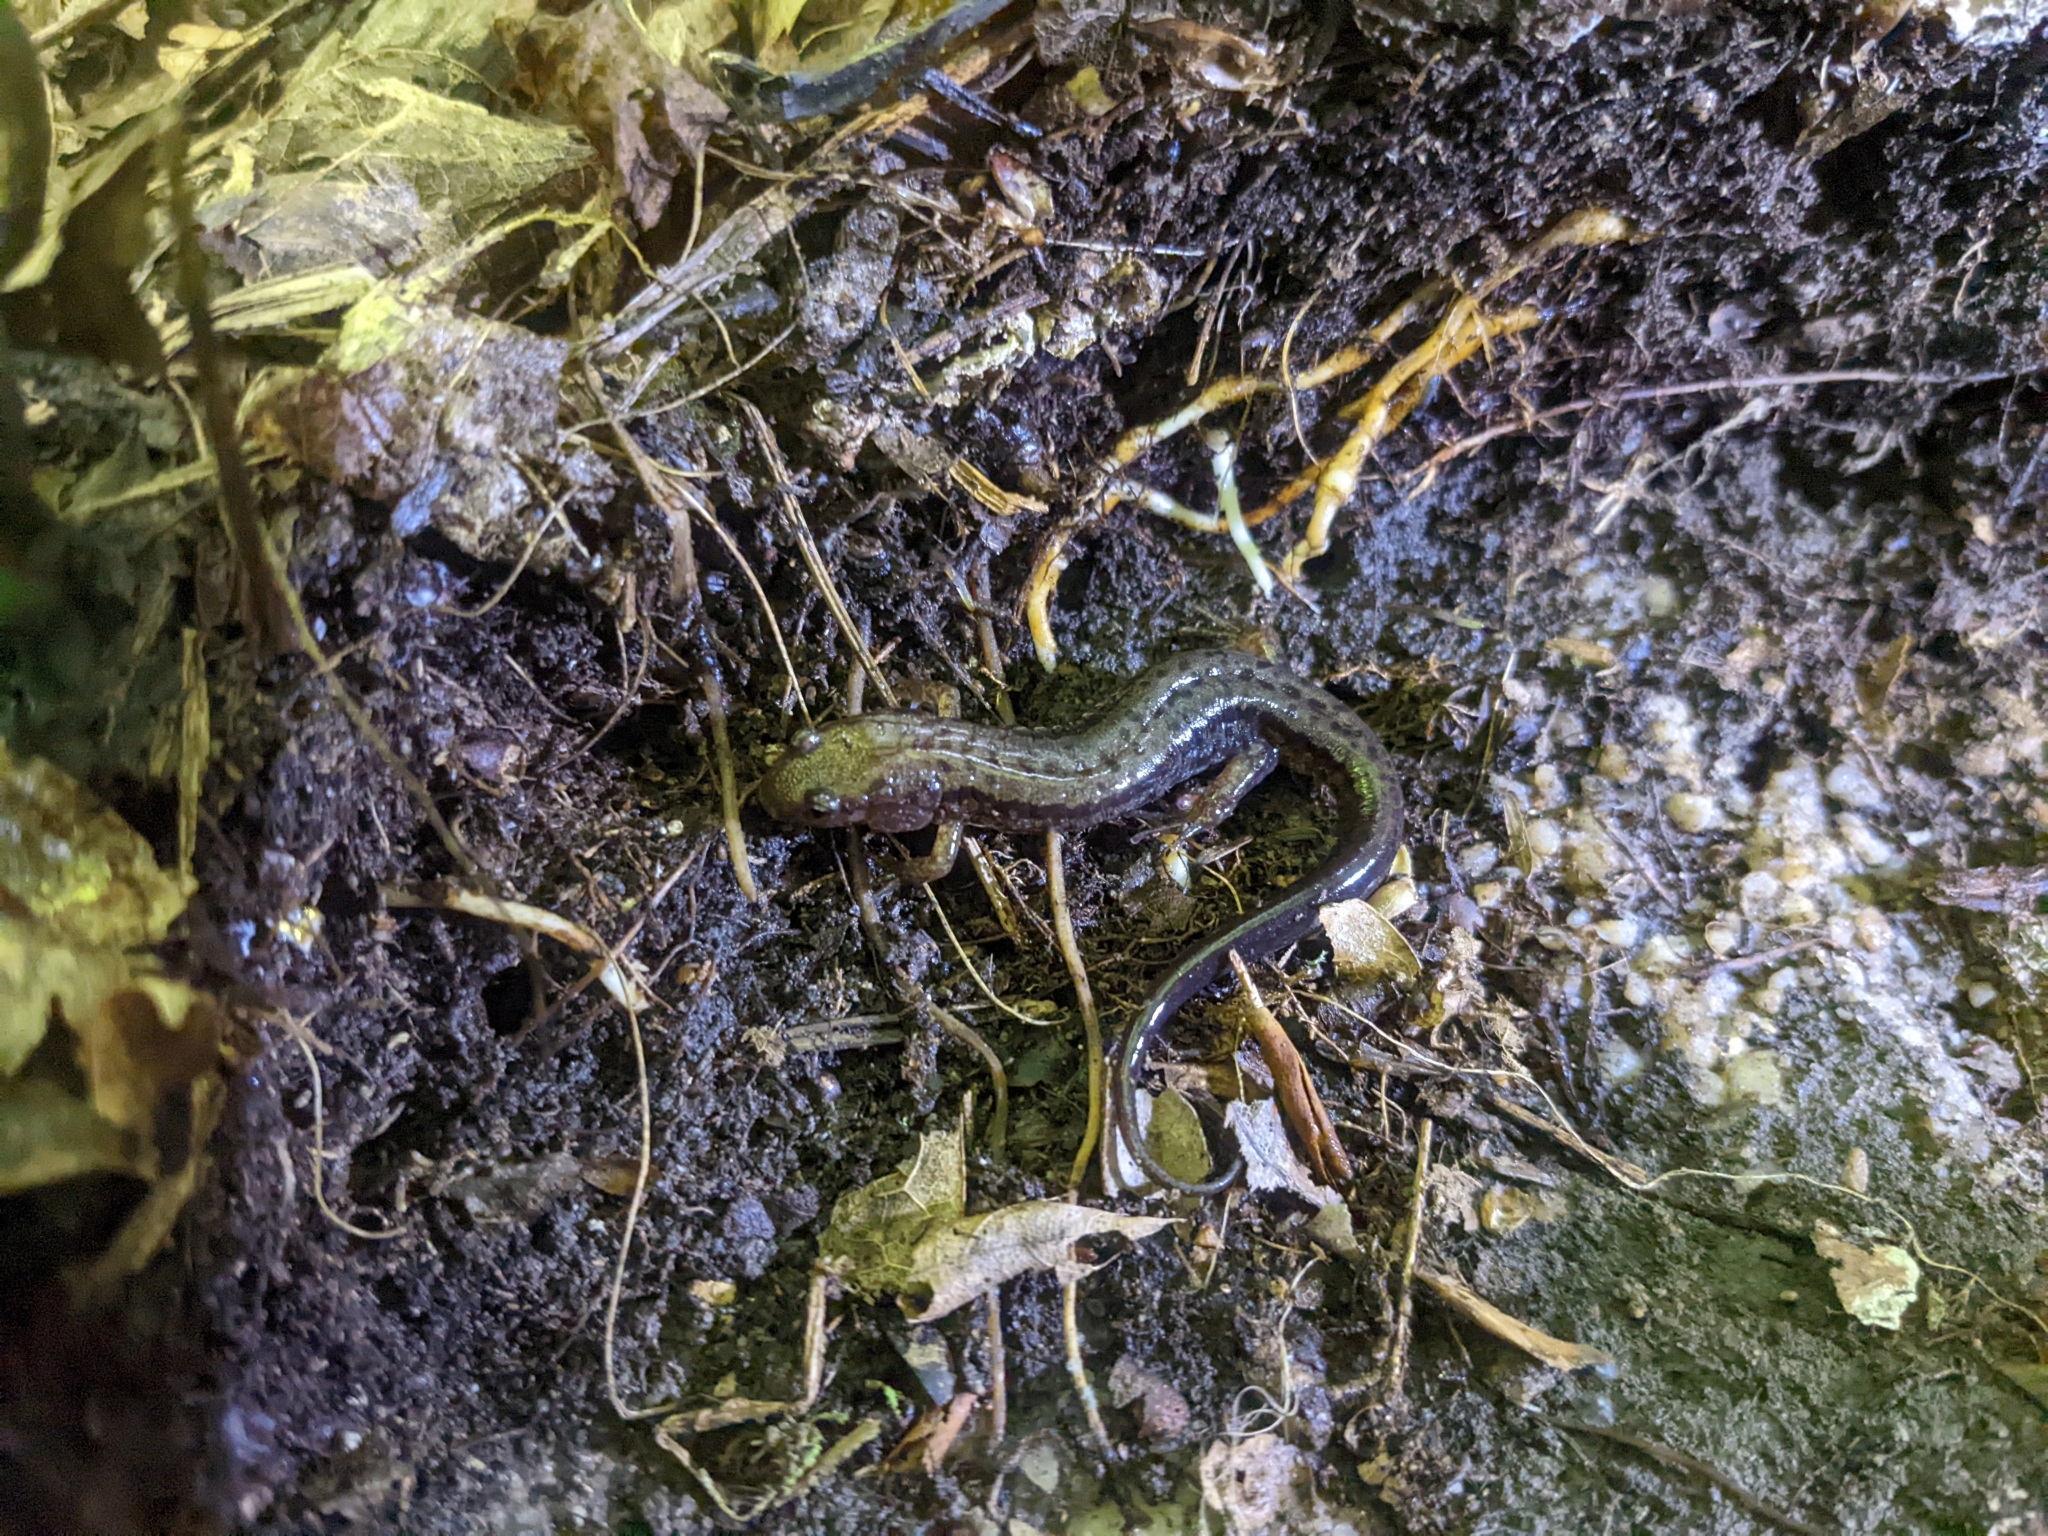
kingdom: Animalia
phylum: Chordata
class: Amphibia
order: Caudata
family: Plethodontidae
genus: Desmognathus
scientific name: Desmognathus ochrophaeus
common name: Allegheny mountain dusky salamander
